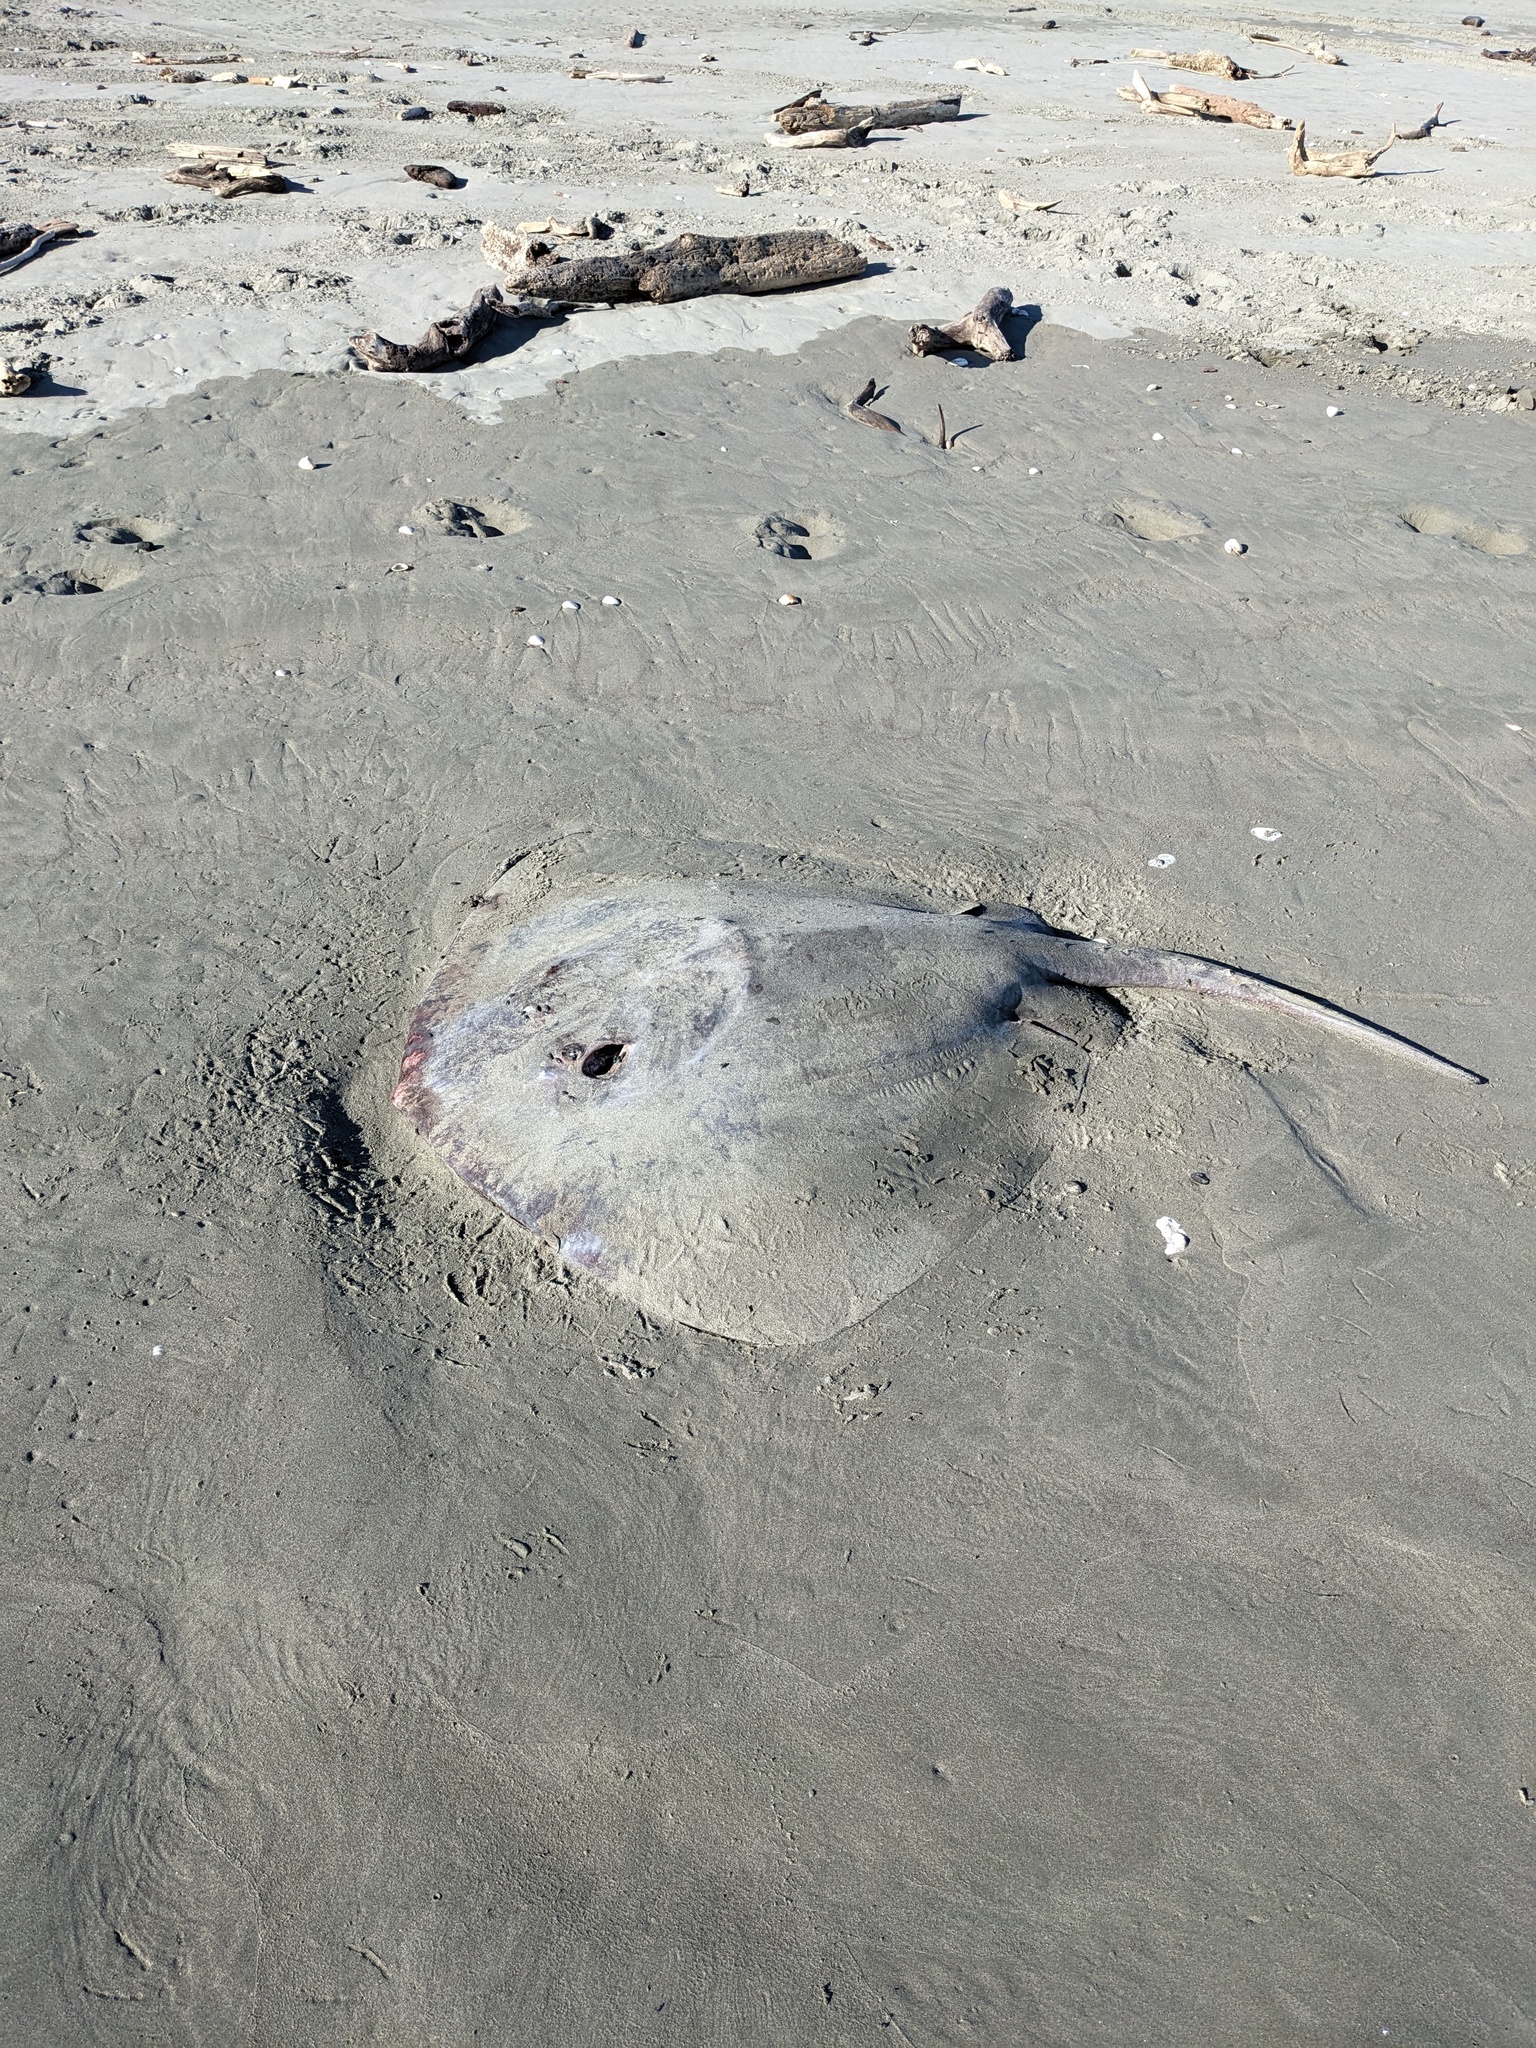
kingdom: Animalia
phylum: Chordata
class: Elasmobranchii
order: Myliobatiformes
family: Dasyatidae
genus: Bathytoshia
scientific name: Bathytoshia brevicaudata
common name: Short-tail stingray
